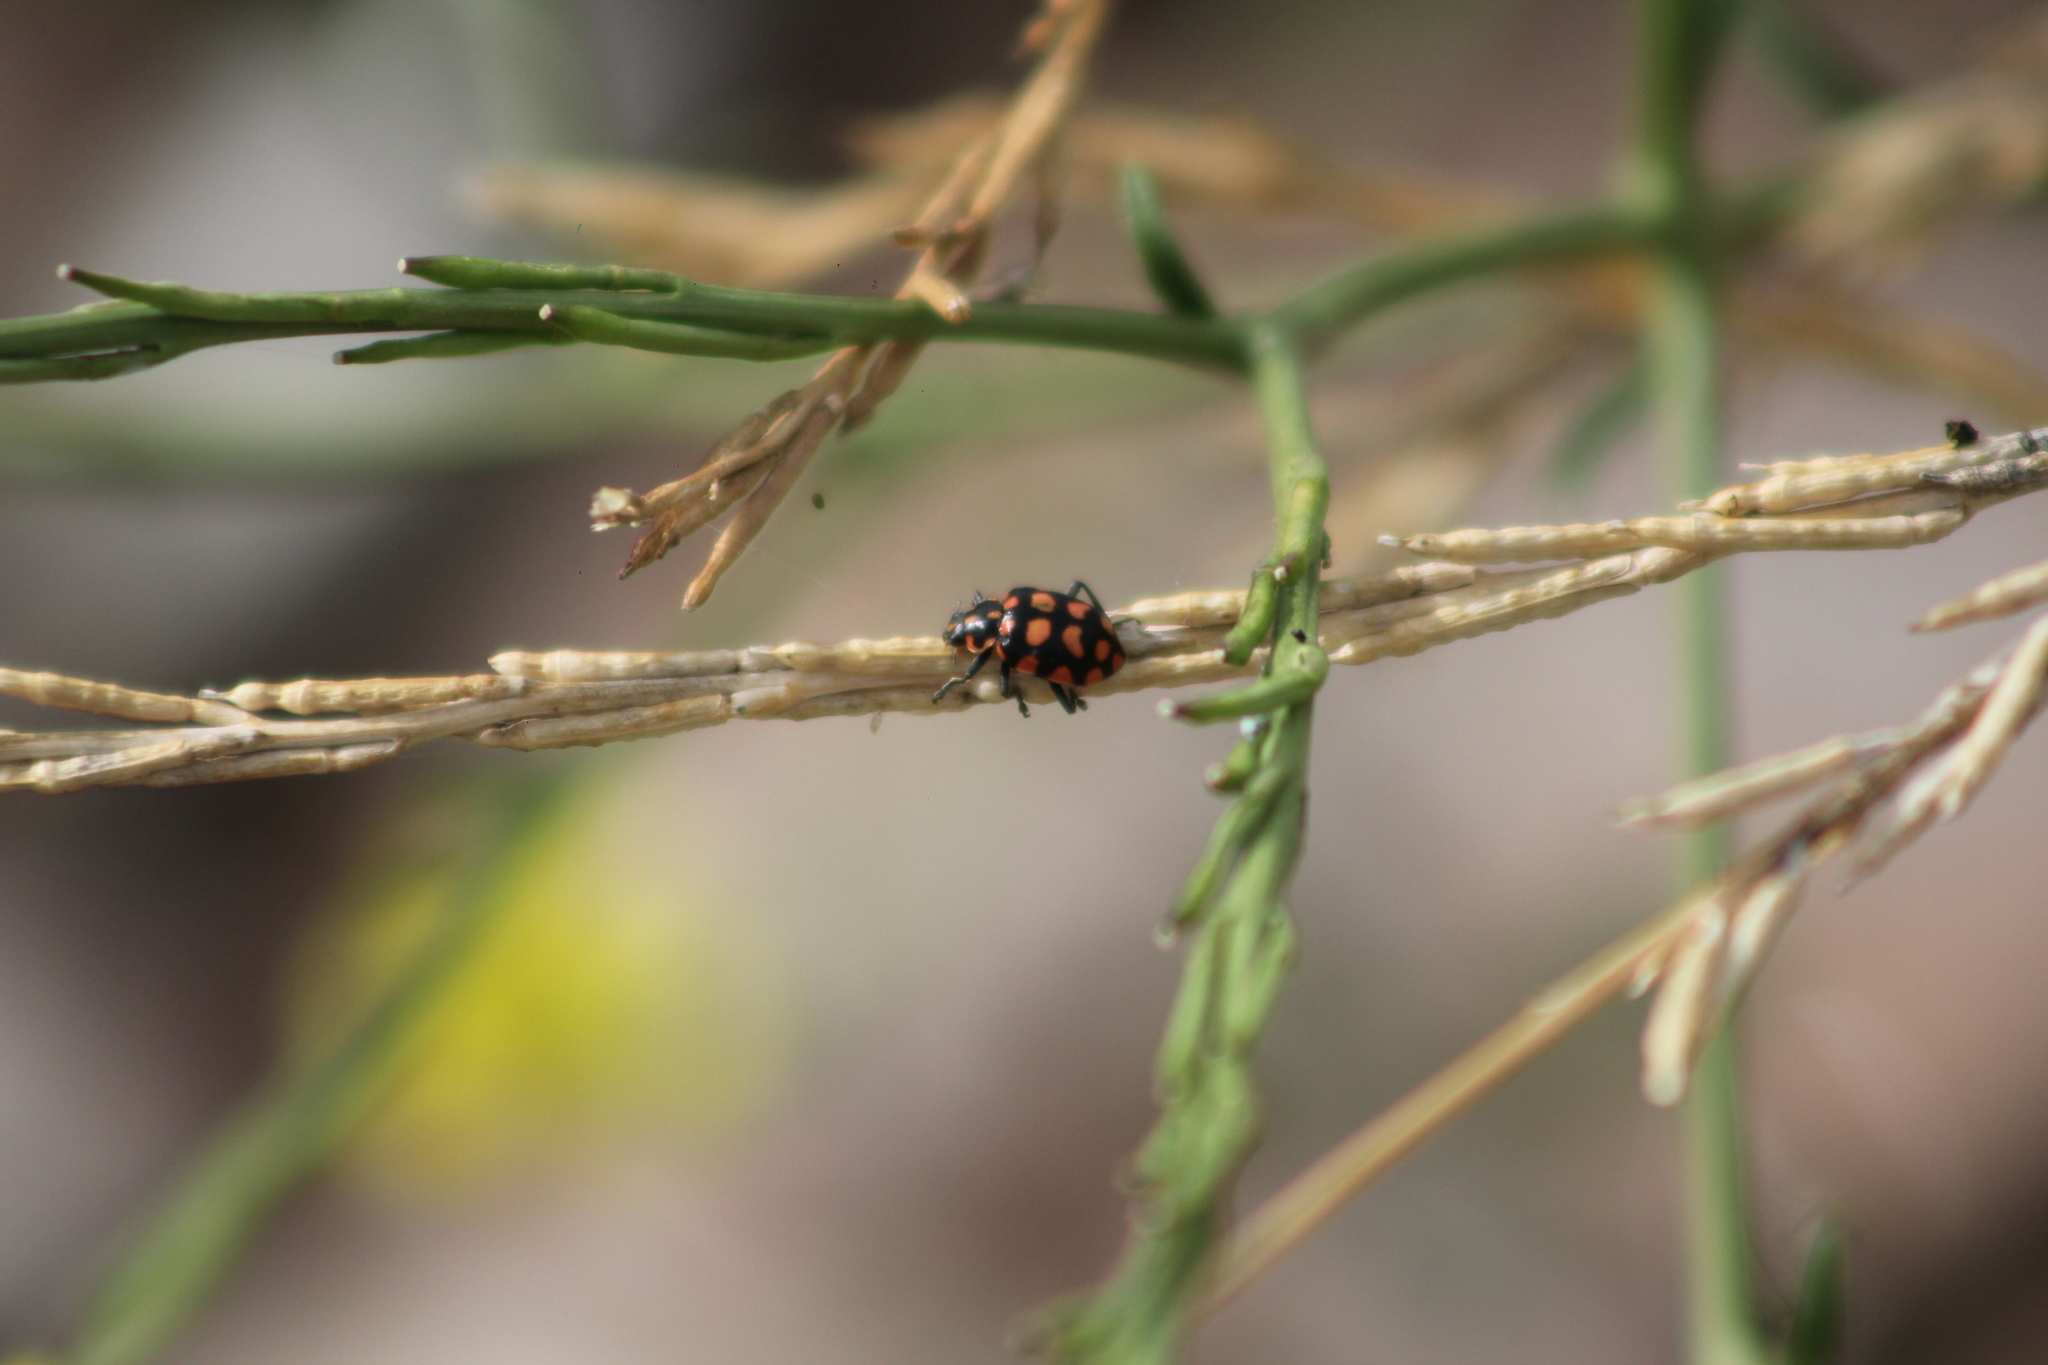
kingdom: Animalia
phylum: Arthropoda
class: Insecta
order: Coleoptera
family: Coccinellidae
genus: Coleomegilla
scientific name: Coleomegilla
